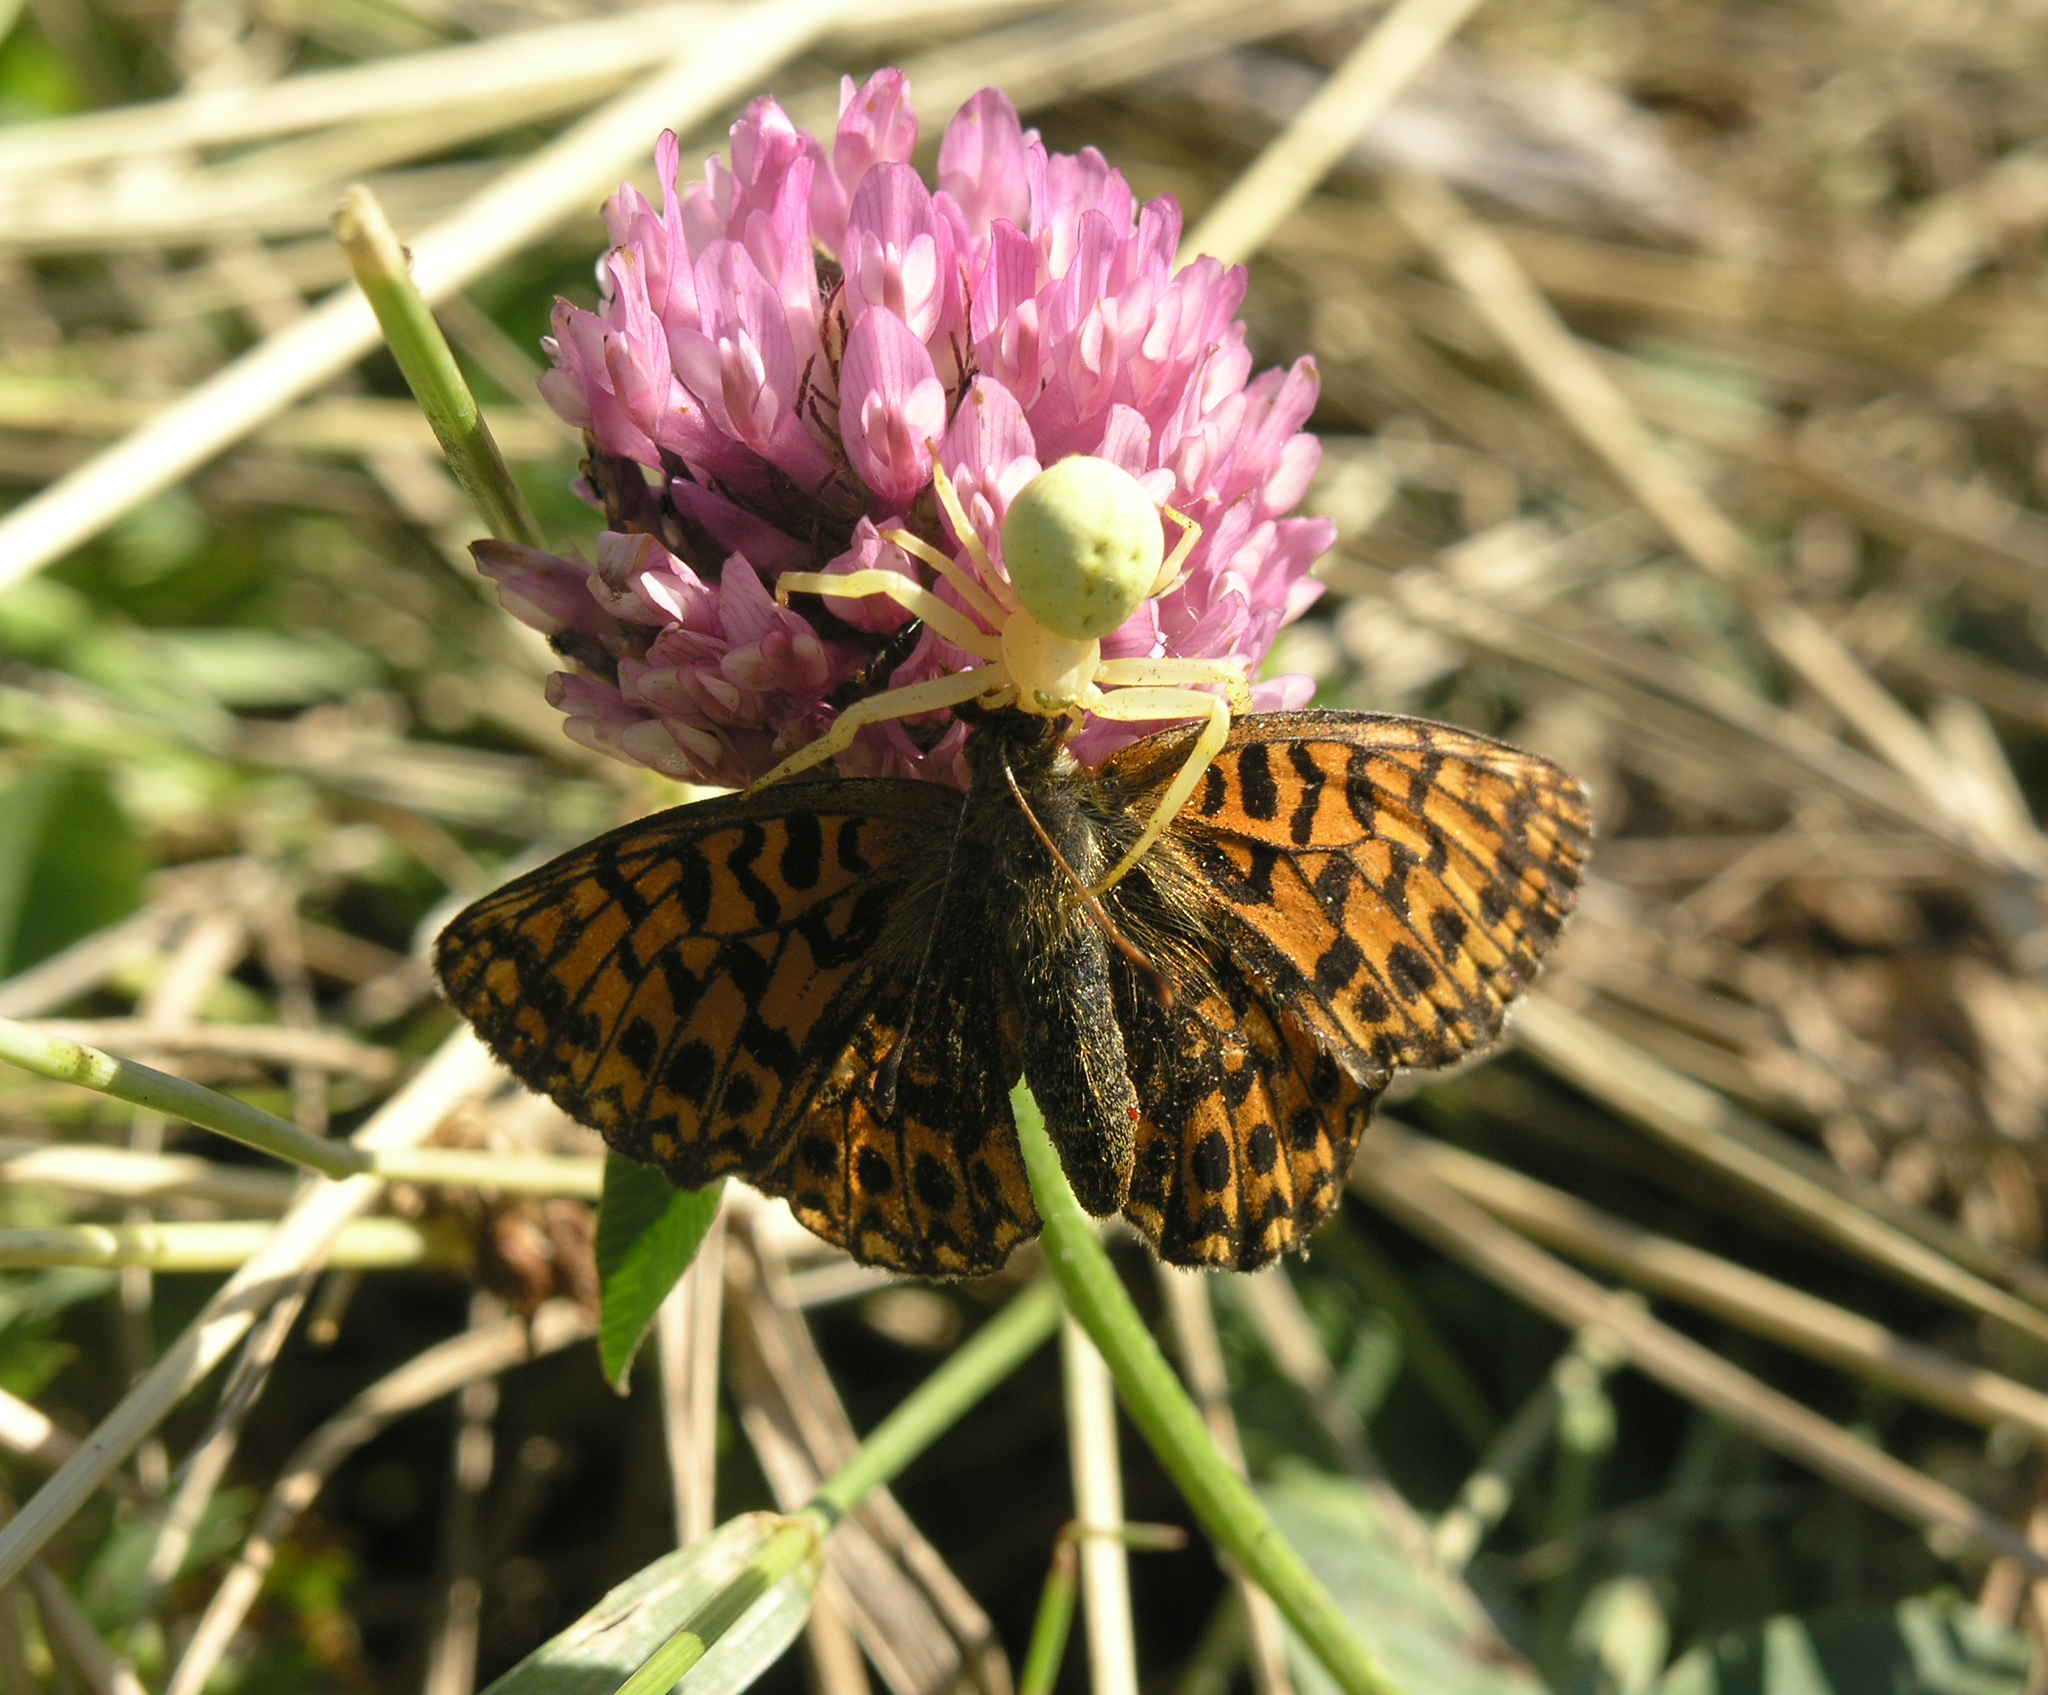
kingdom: Animalia
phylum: Arthropoda
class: Insecta
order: Lepidoptera
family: Nymphalidae
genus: Boloria
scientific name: Boloria dia
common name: Weaver's fritillary
